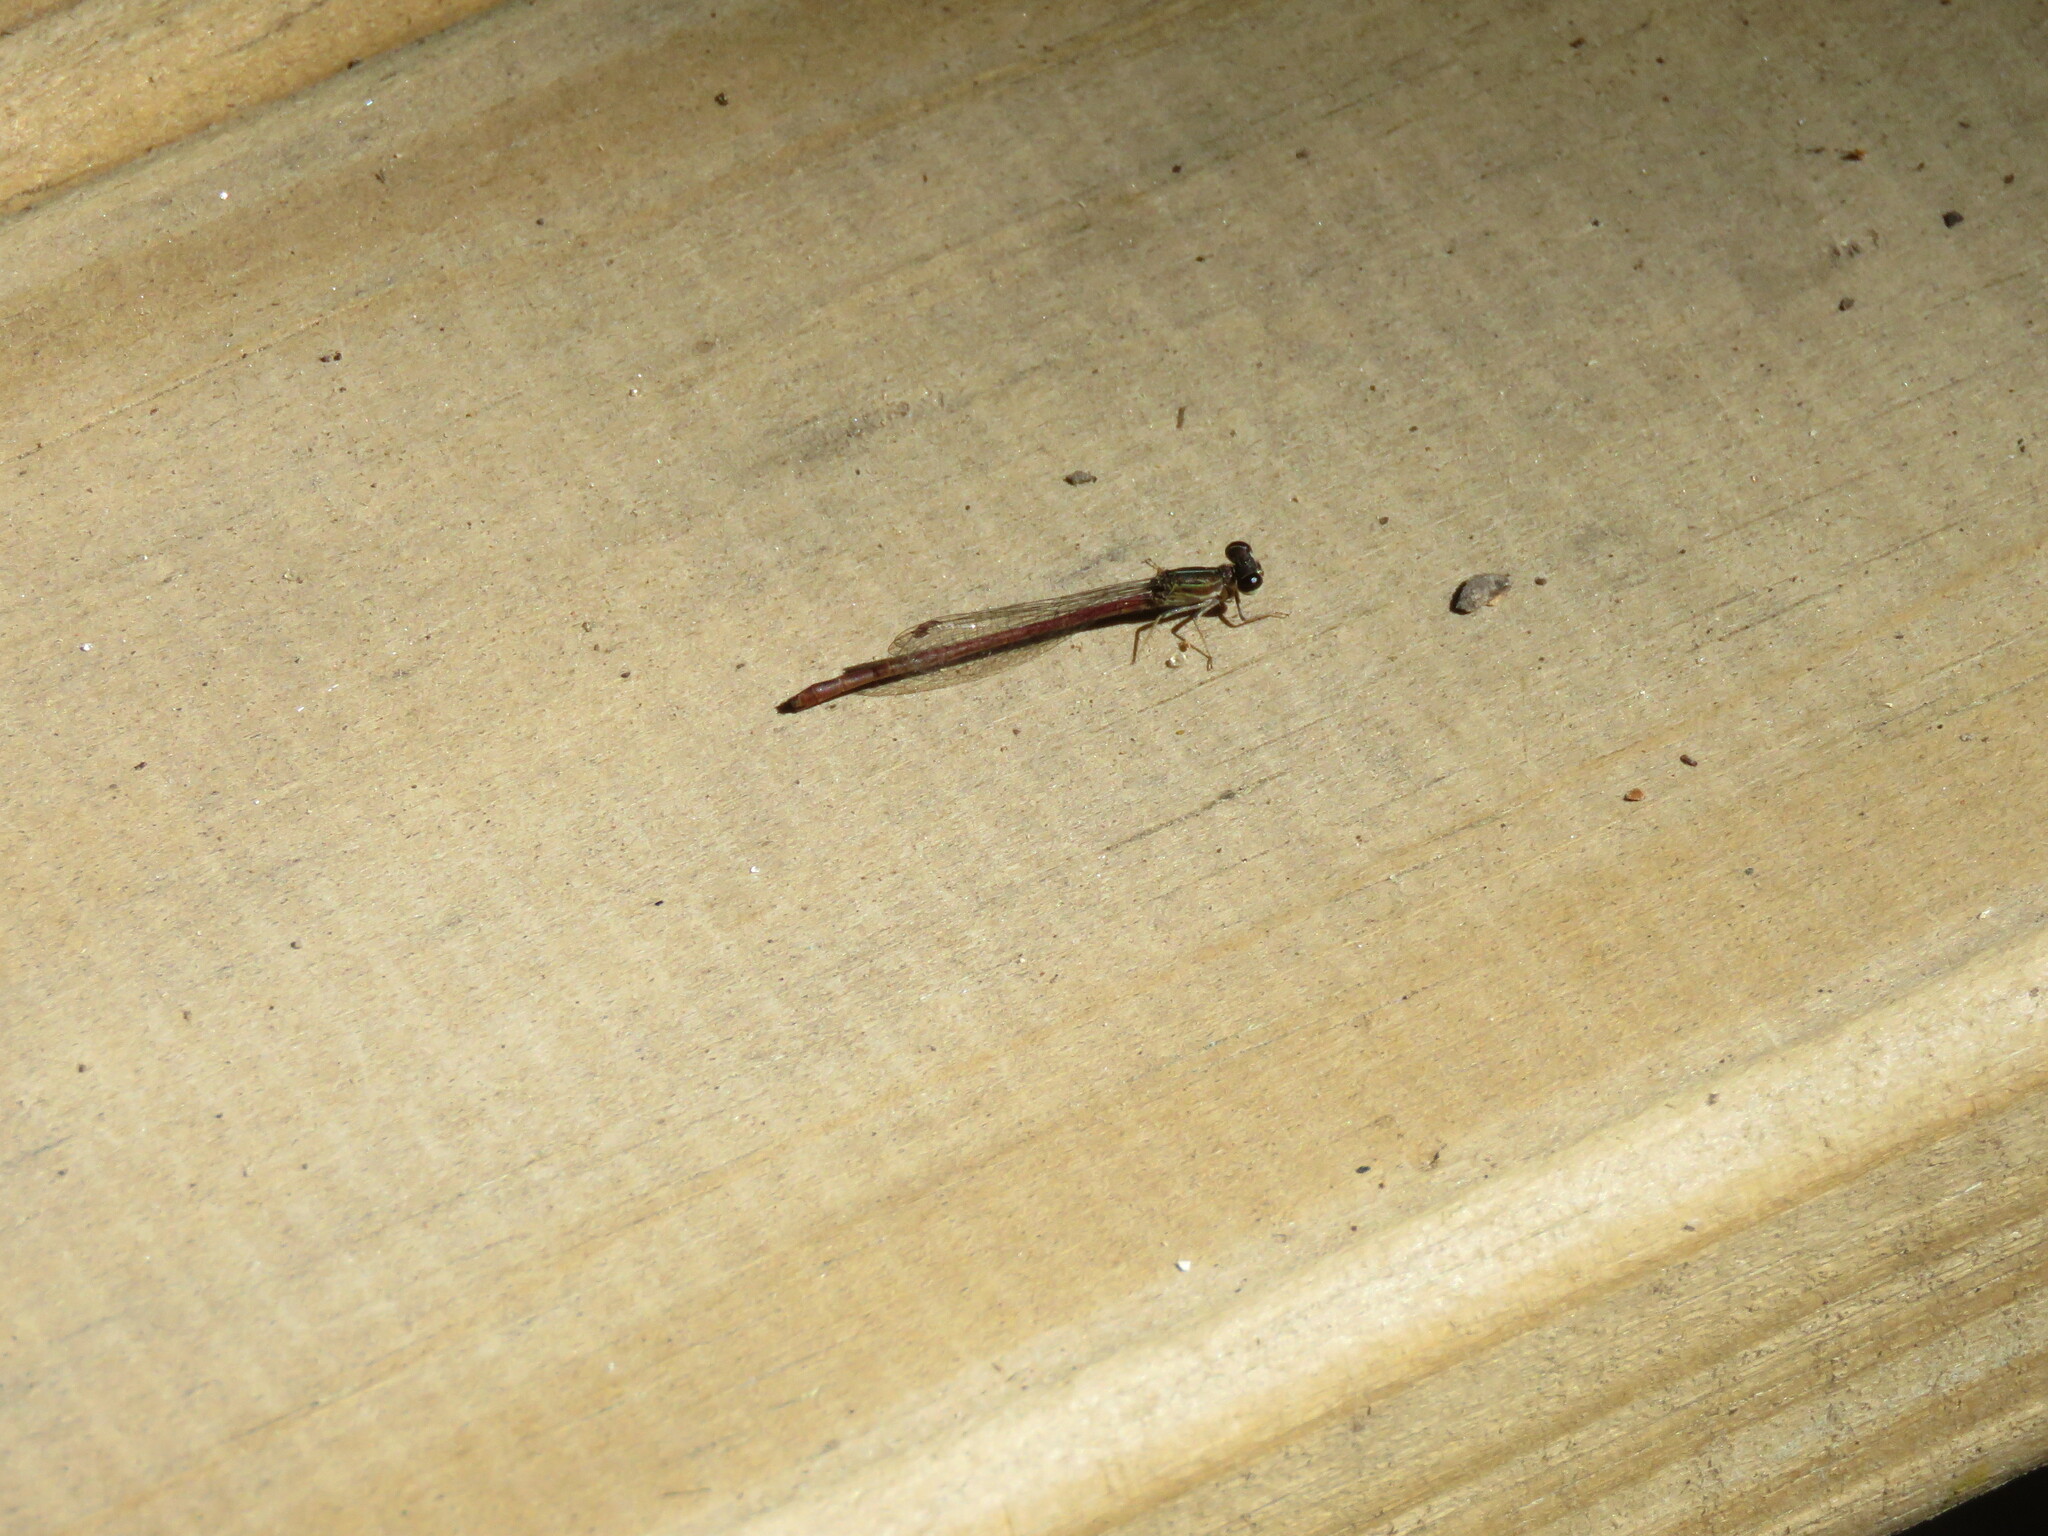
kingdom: Animalia
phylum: Arthropoda
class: Insecta
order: Odonata
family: Coenagrionidae
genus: Telebasis
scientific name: Telebasis willinki
